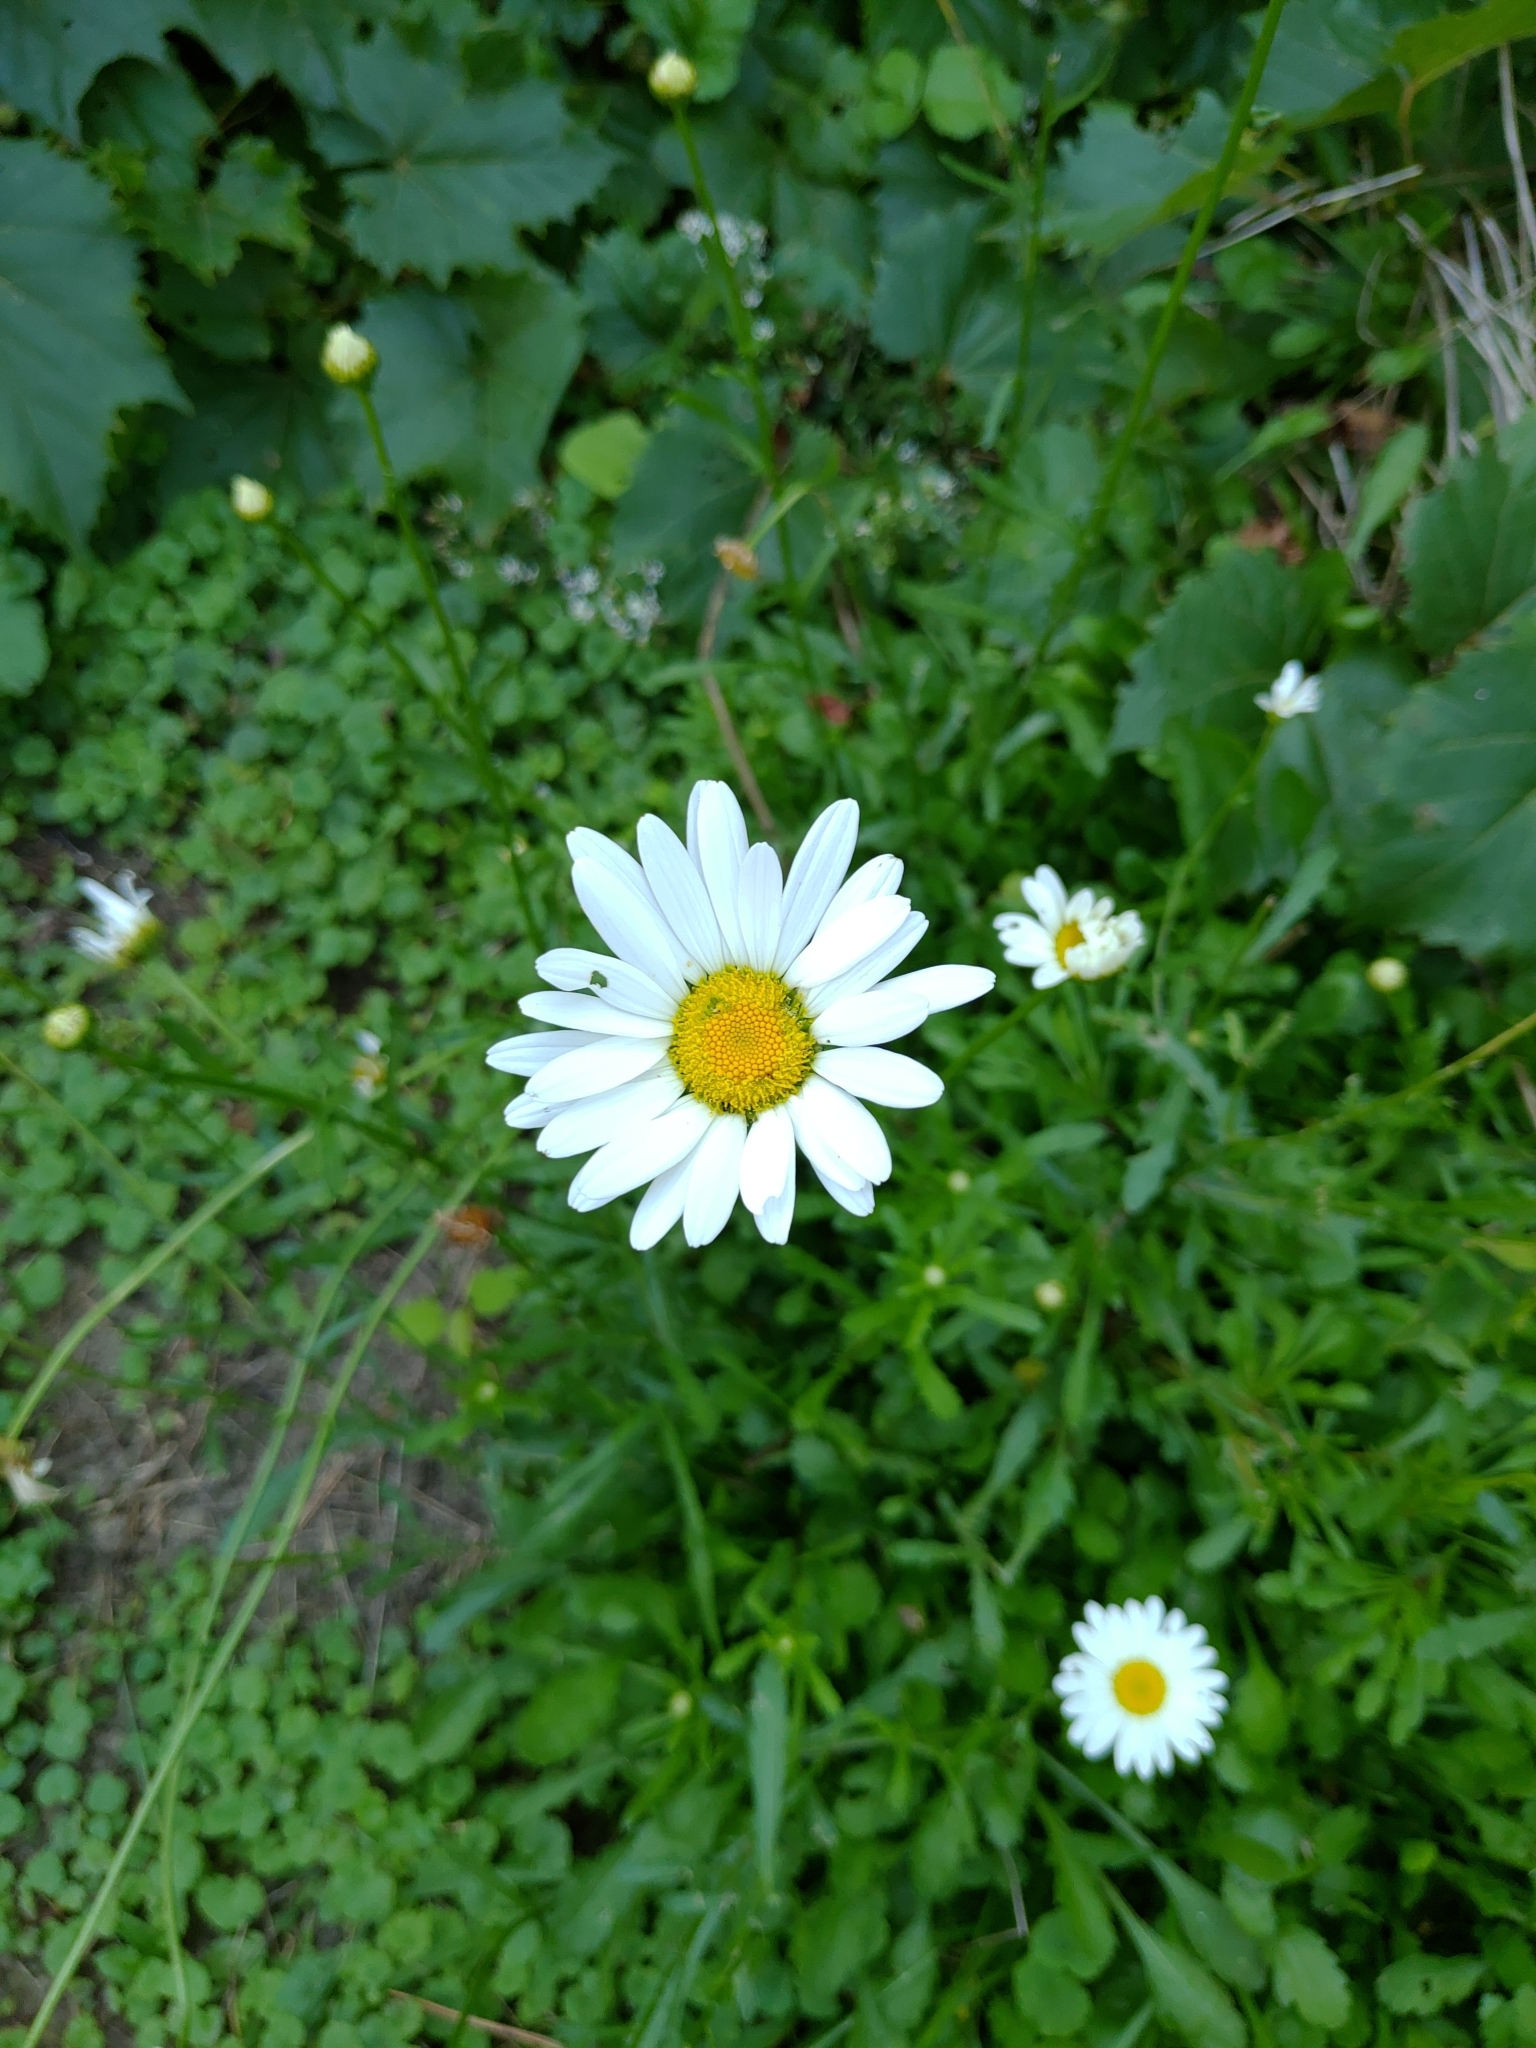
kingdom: Plantae
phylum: Tracheophyta
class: Magnoliopsida
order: Asterales
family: Asteraceae
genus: Leucanthemum
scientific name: Leucanthemum vulgare
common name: Oxeye daisy
